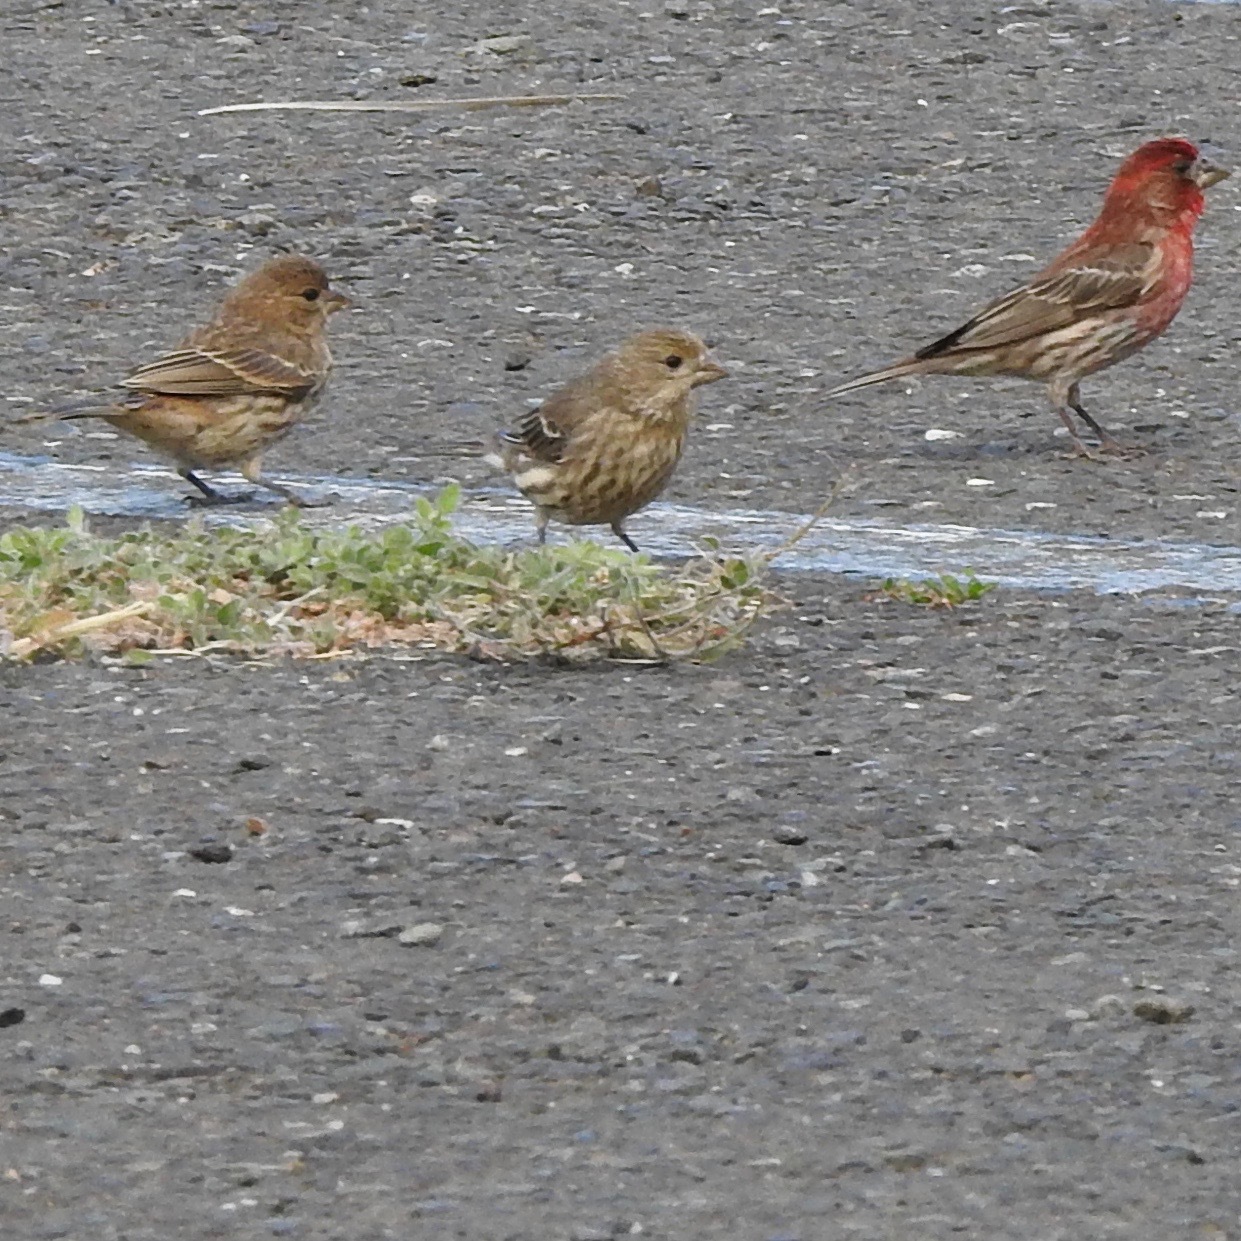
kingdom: Animalia
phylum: Chordata
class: Aves
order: Passeriformes
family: Fringillidae
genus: Haemorhous
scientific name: Haemorhous mexicanus
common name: House finch
